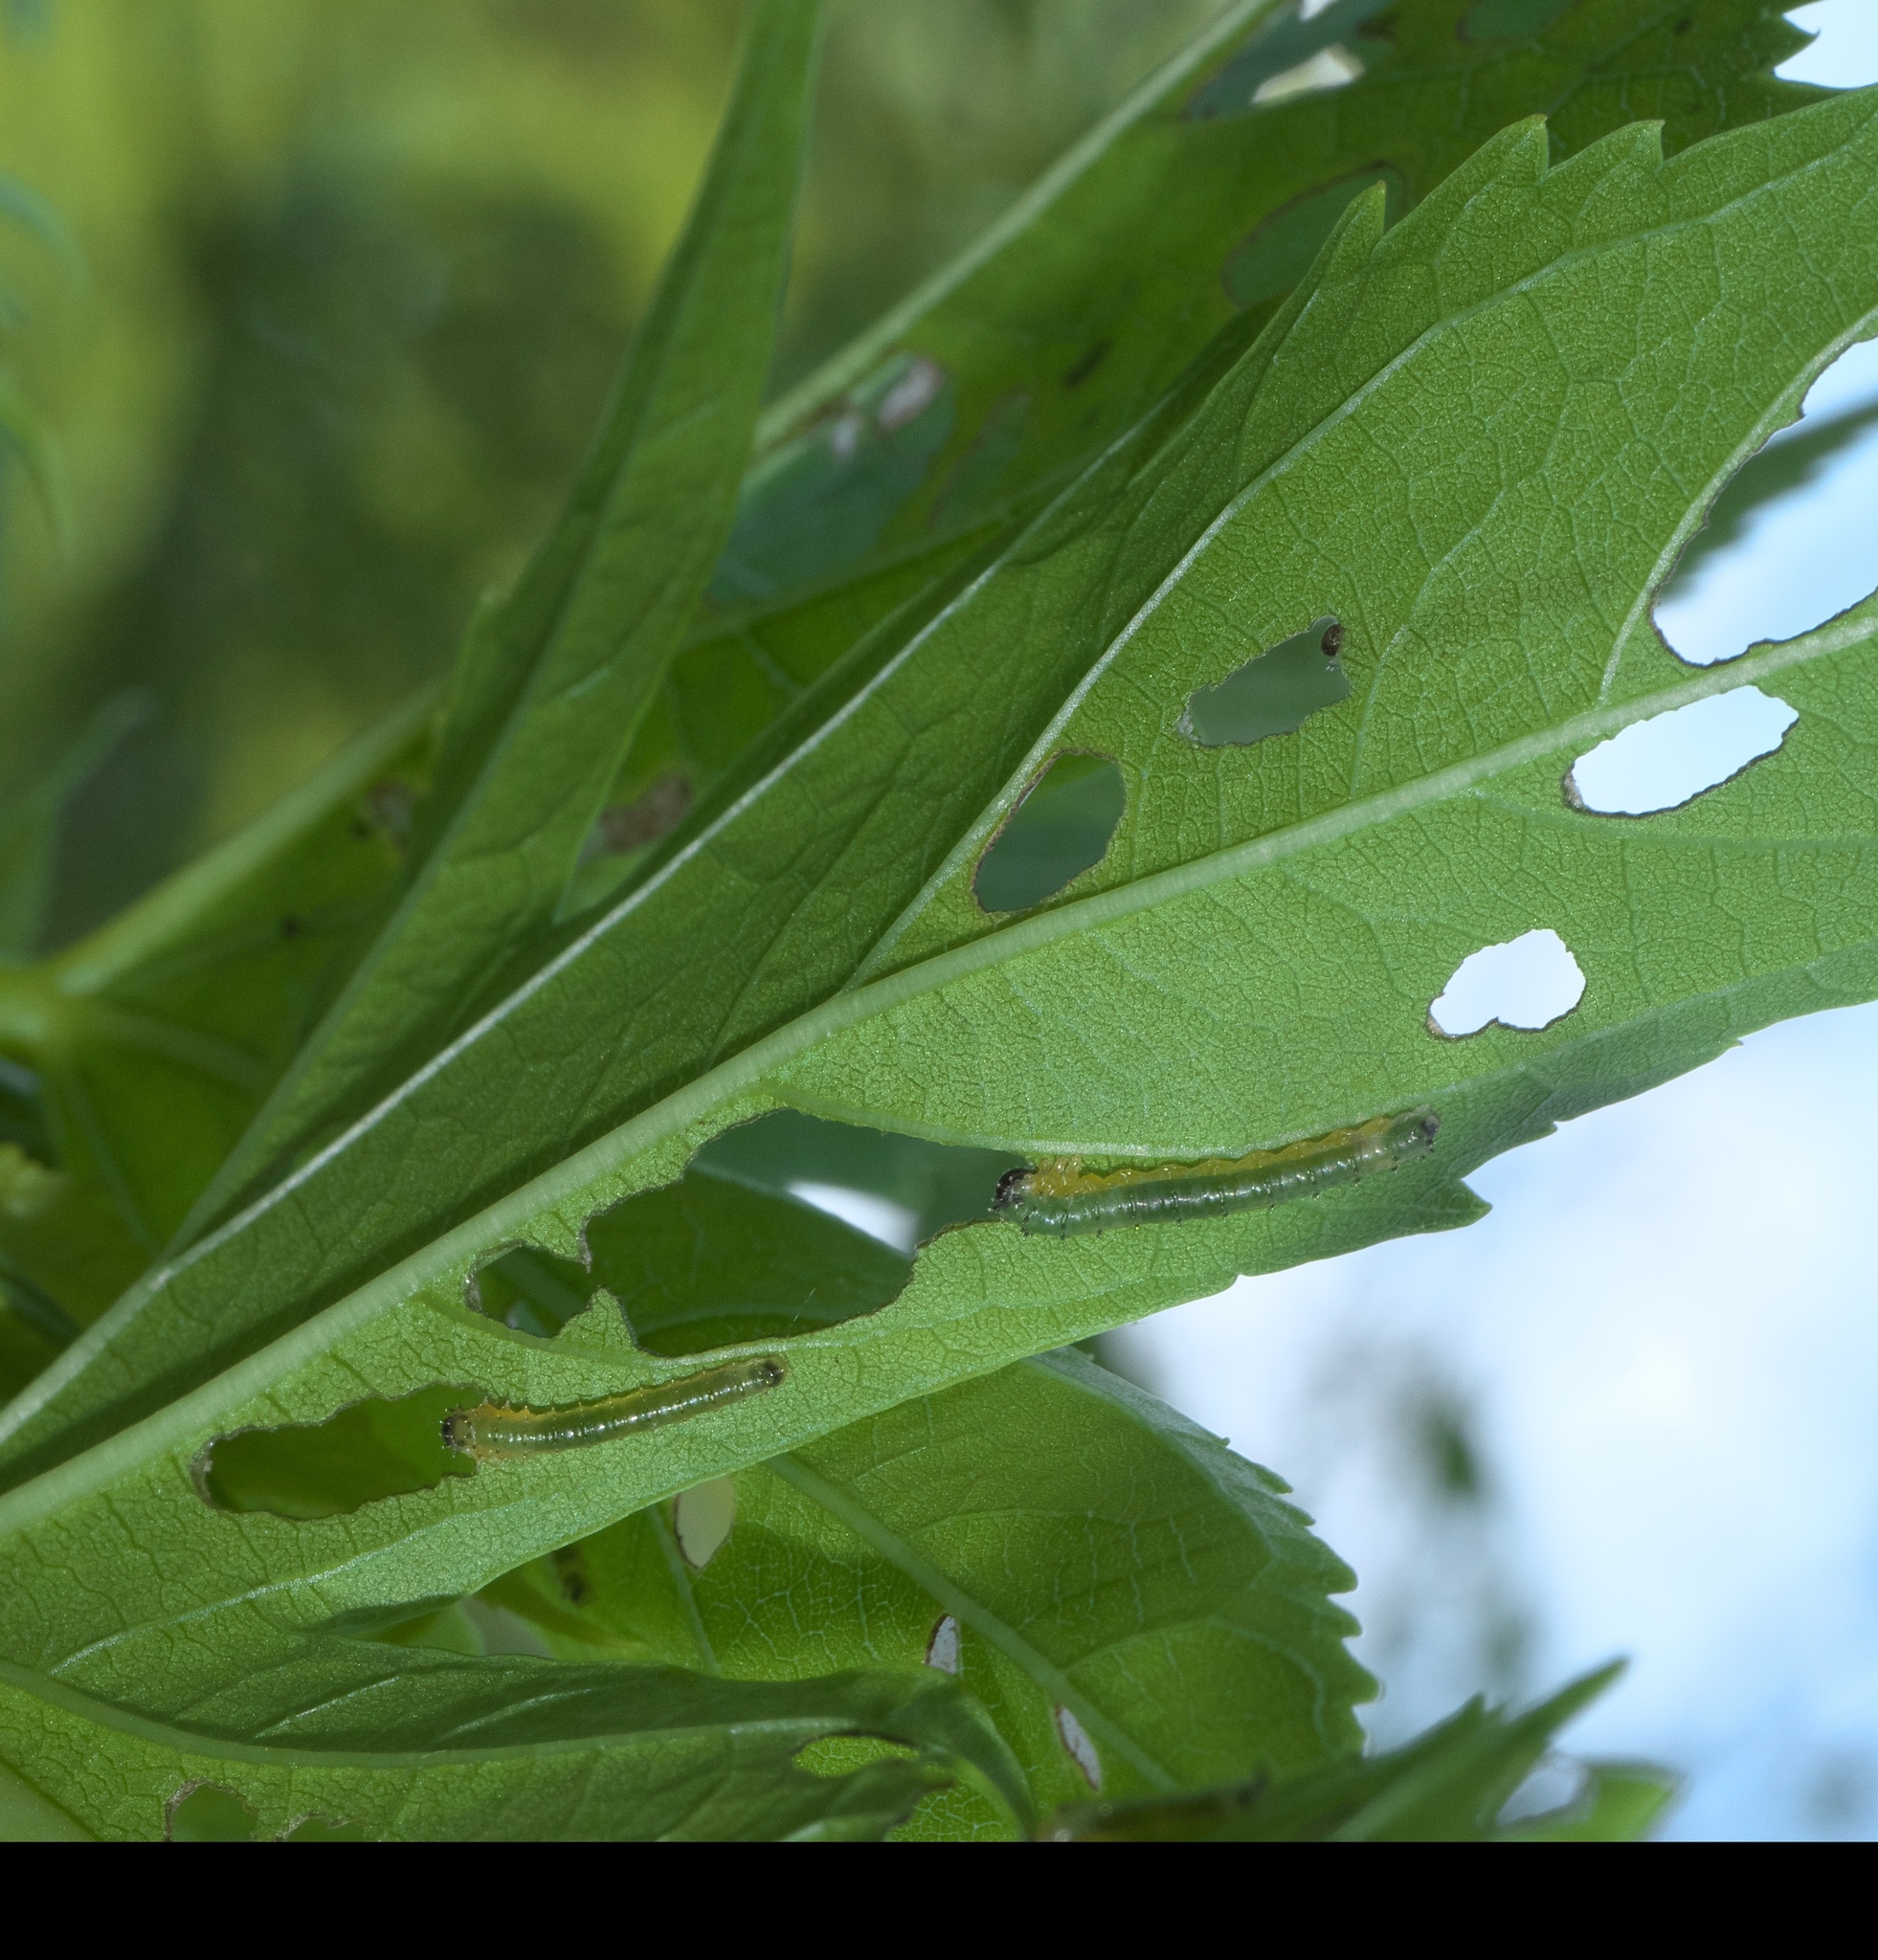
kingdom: Animalia
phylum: Arthropoda
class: Insecta
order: Hymenoptera
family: Argidae
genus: Atomacera
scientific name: Atomacera
